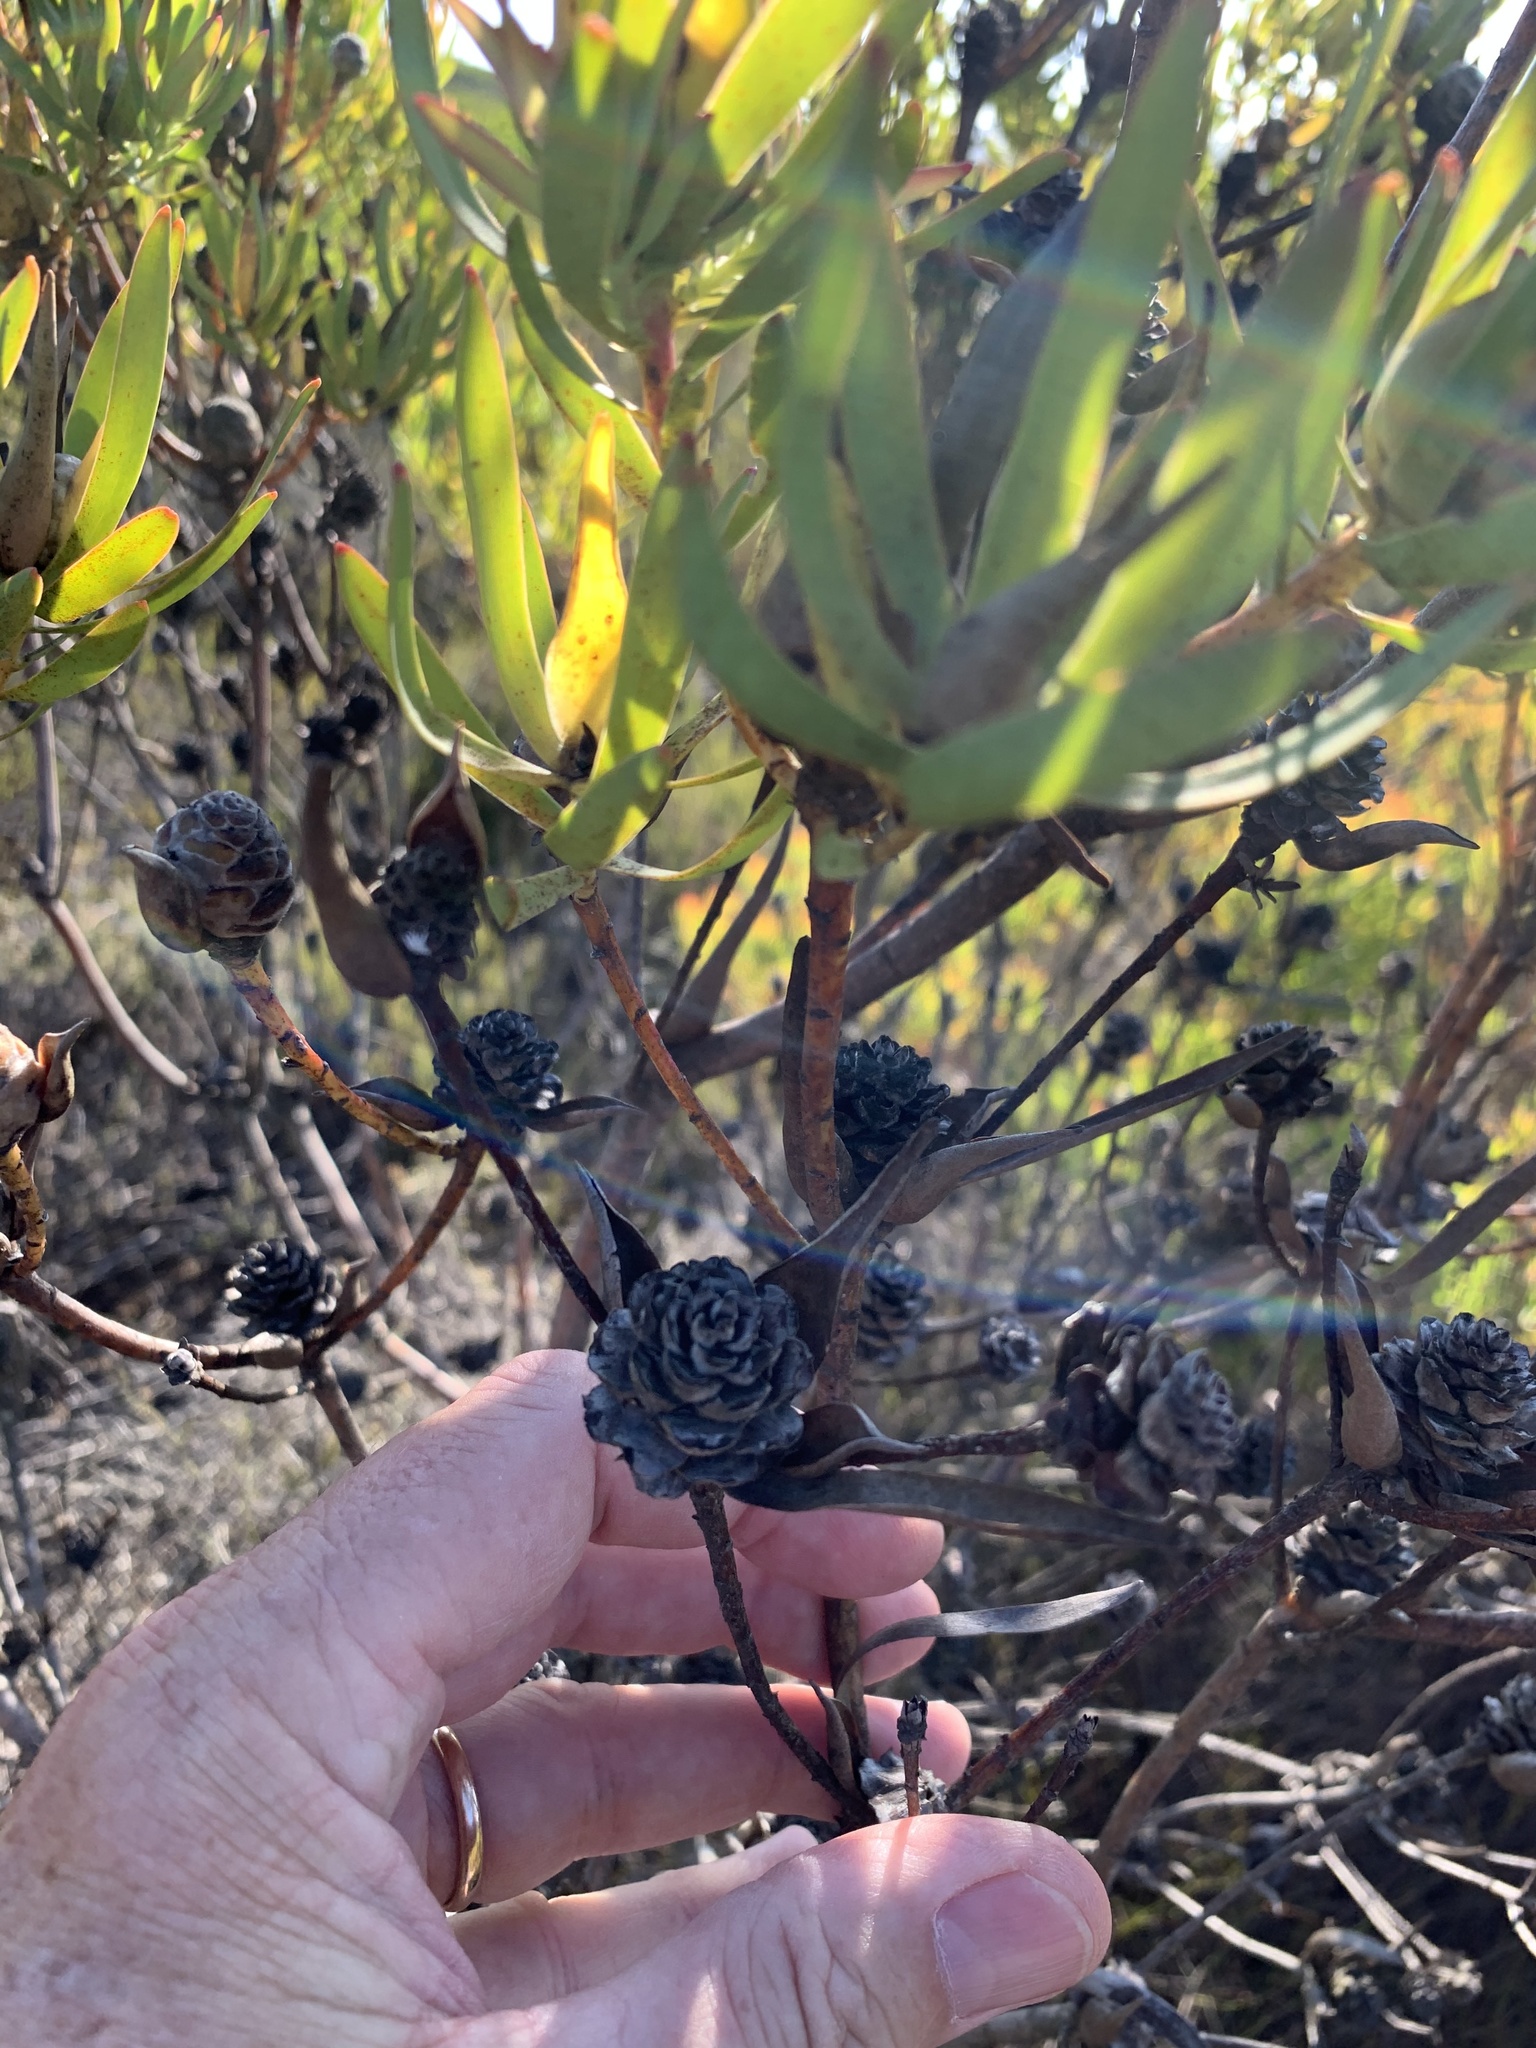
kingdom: Plantae
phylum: Tracheophyta
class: Magnoliopsida
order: Proteales
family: Proteaceae
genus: Leucadendron
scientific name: Leucadendron salignum
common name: Common sunshine conebush
